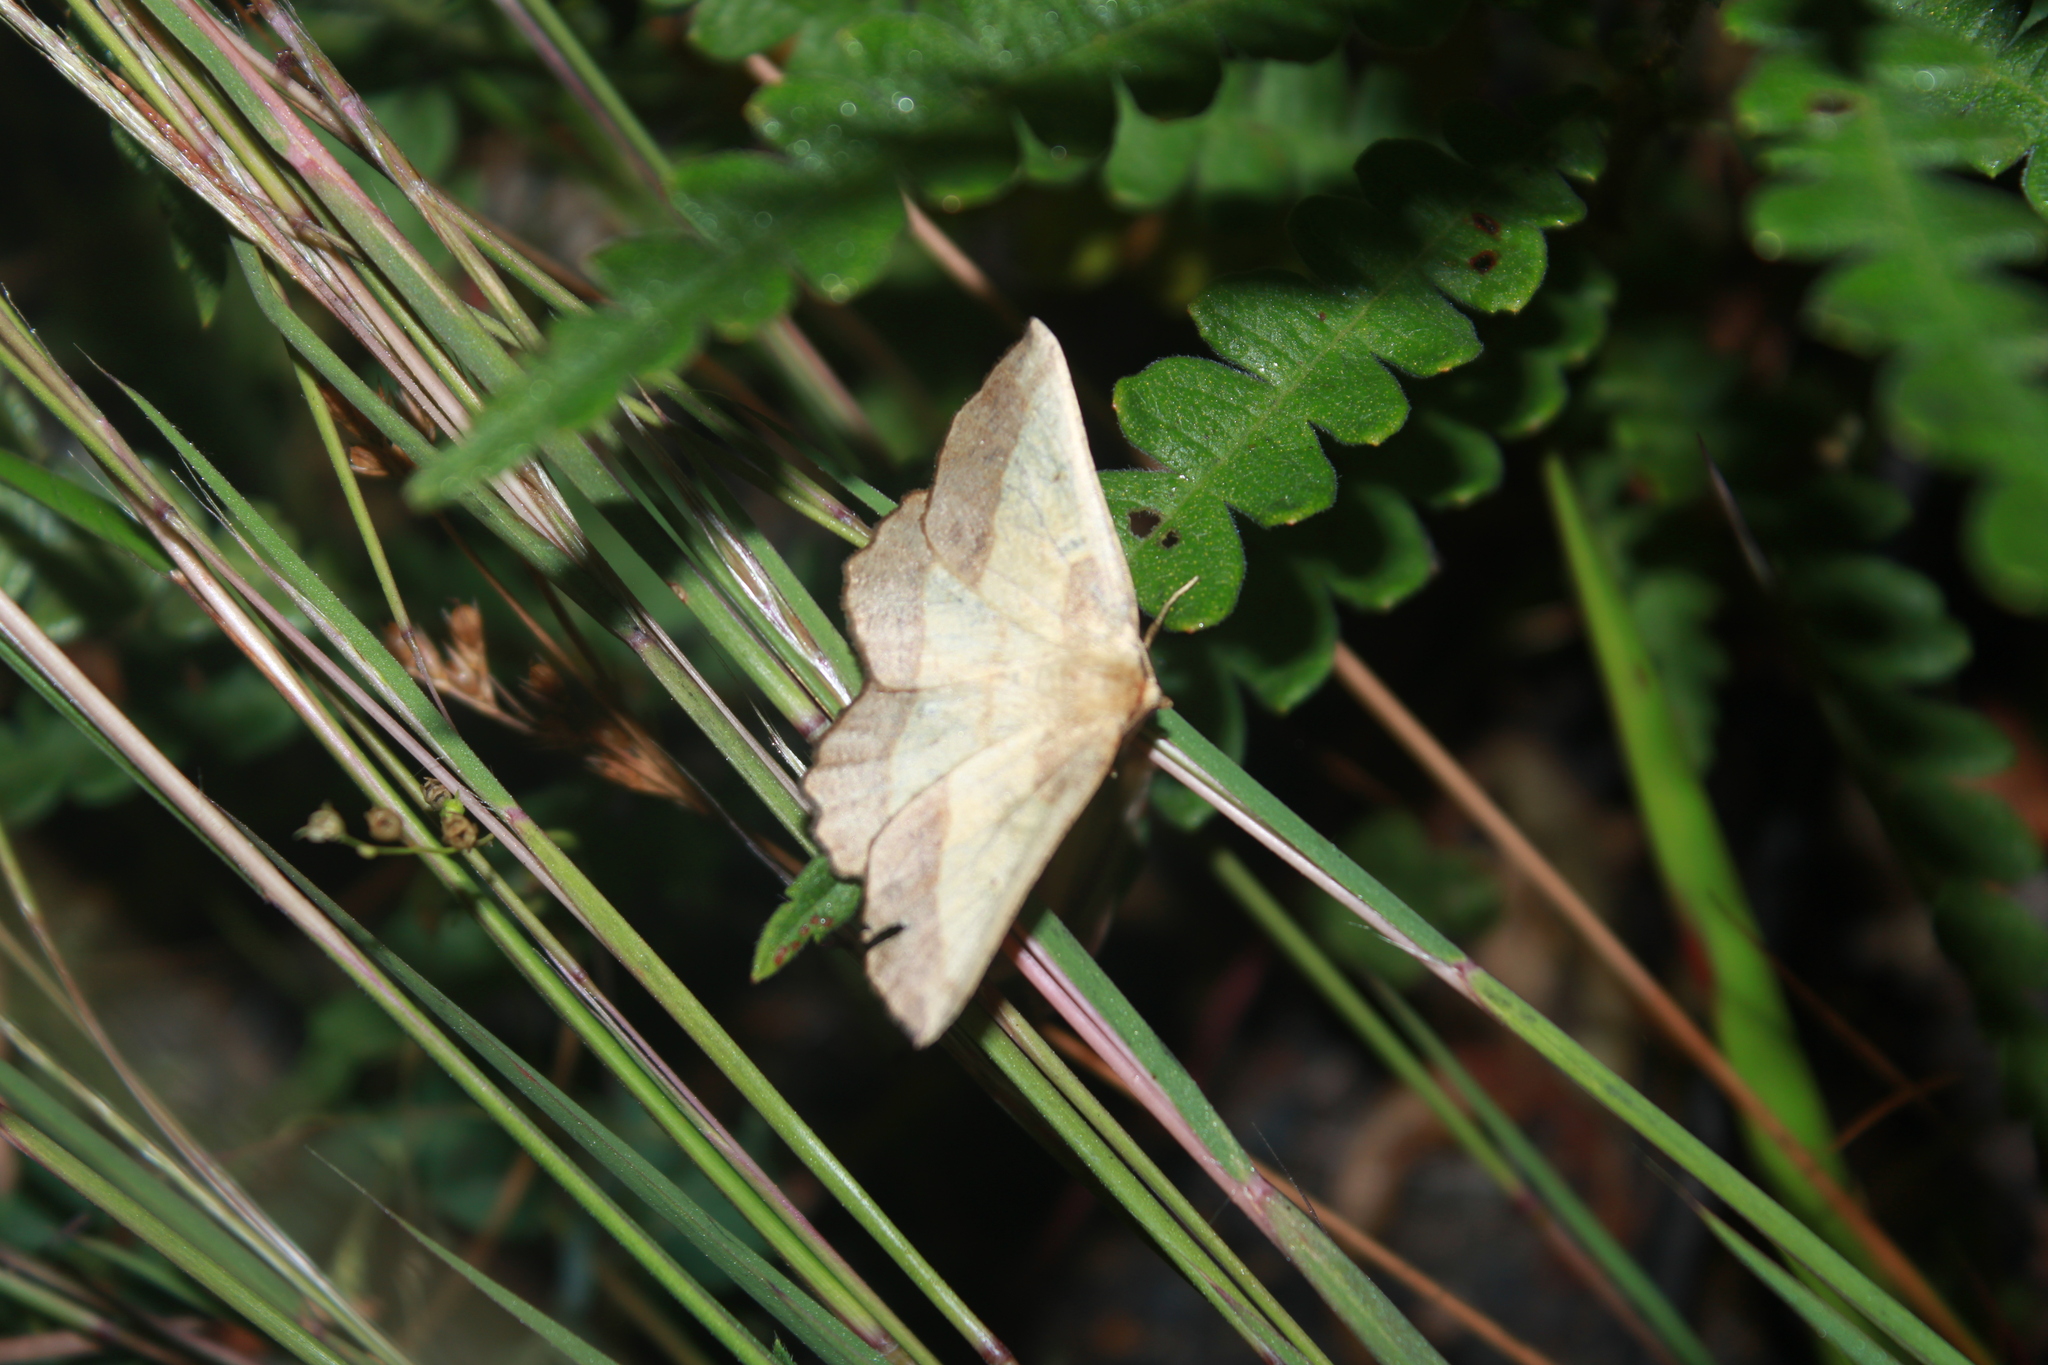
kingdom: Animalia
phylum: Arthropoda
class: Insecta
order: Lepidoptera
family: Geometridae
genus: Euchlaena
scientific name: Euchlaena serrata
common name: Saw wing
